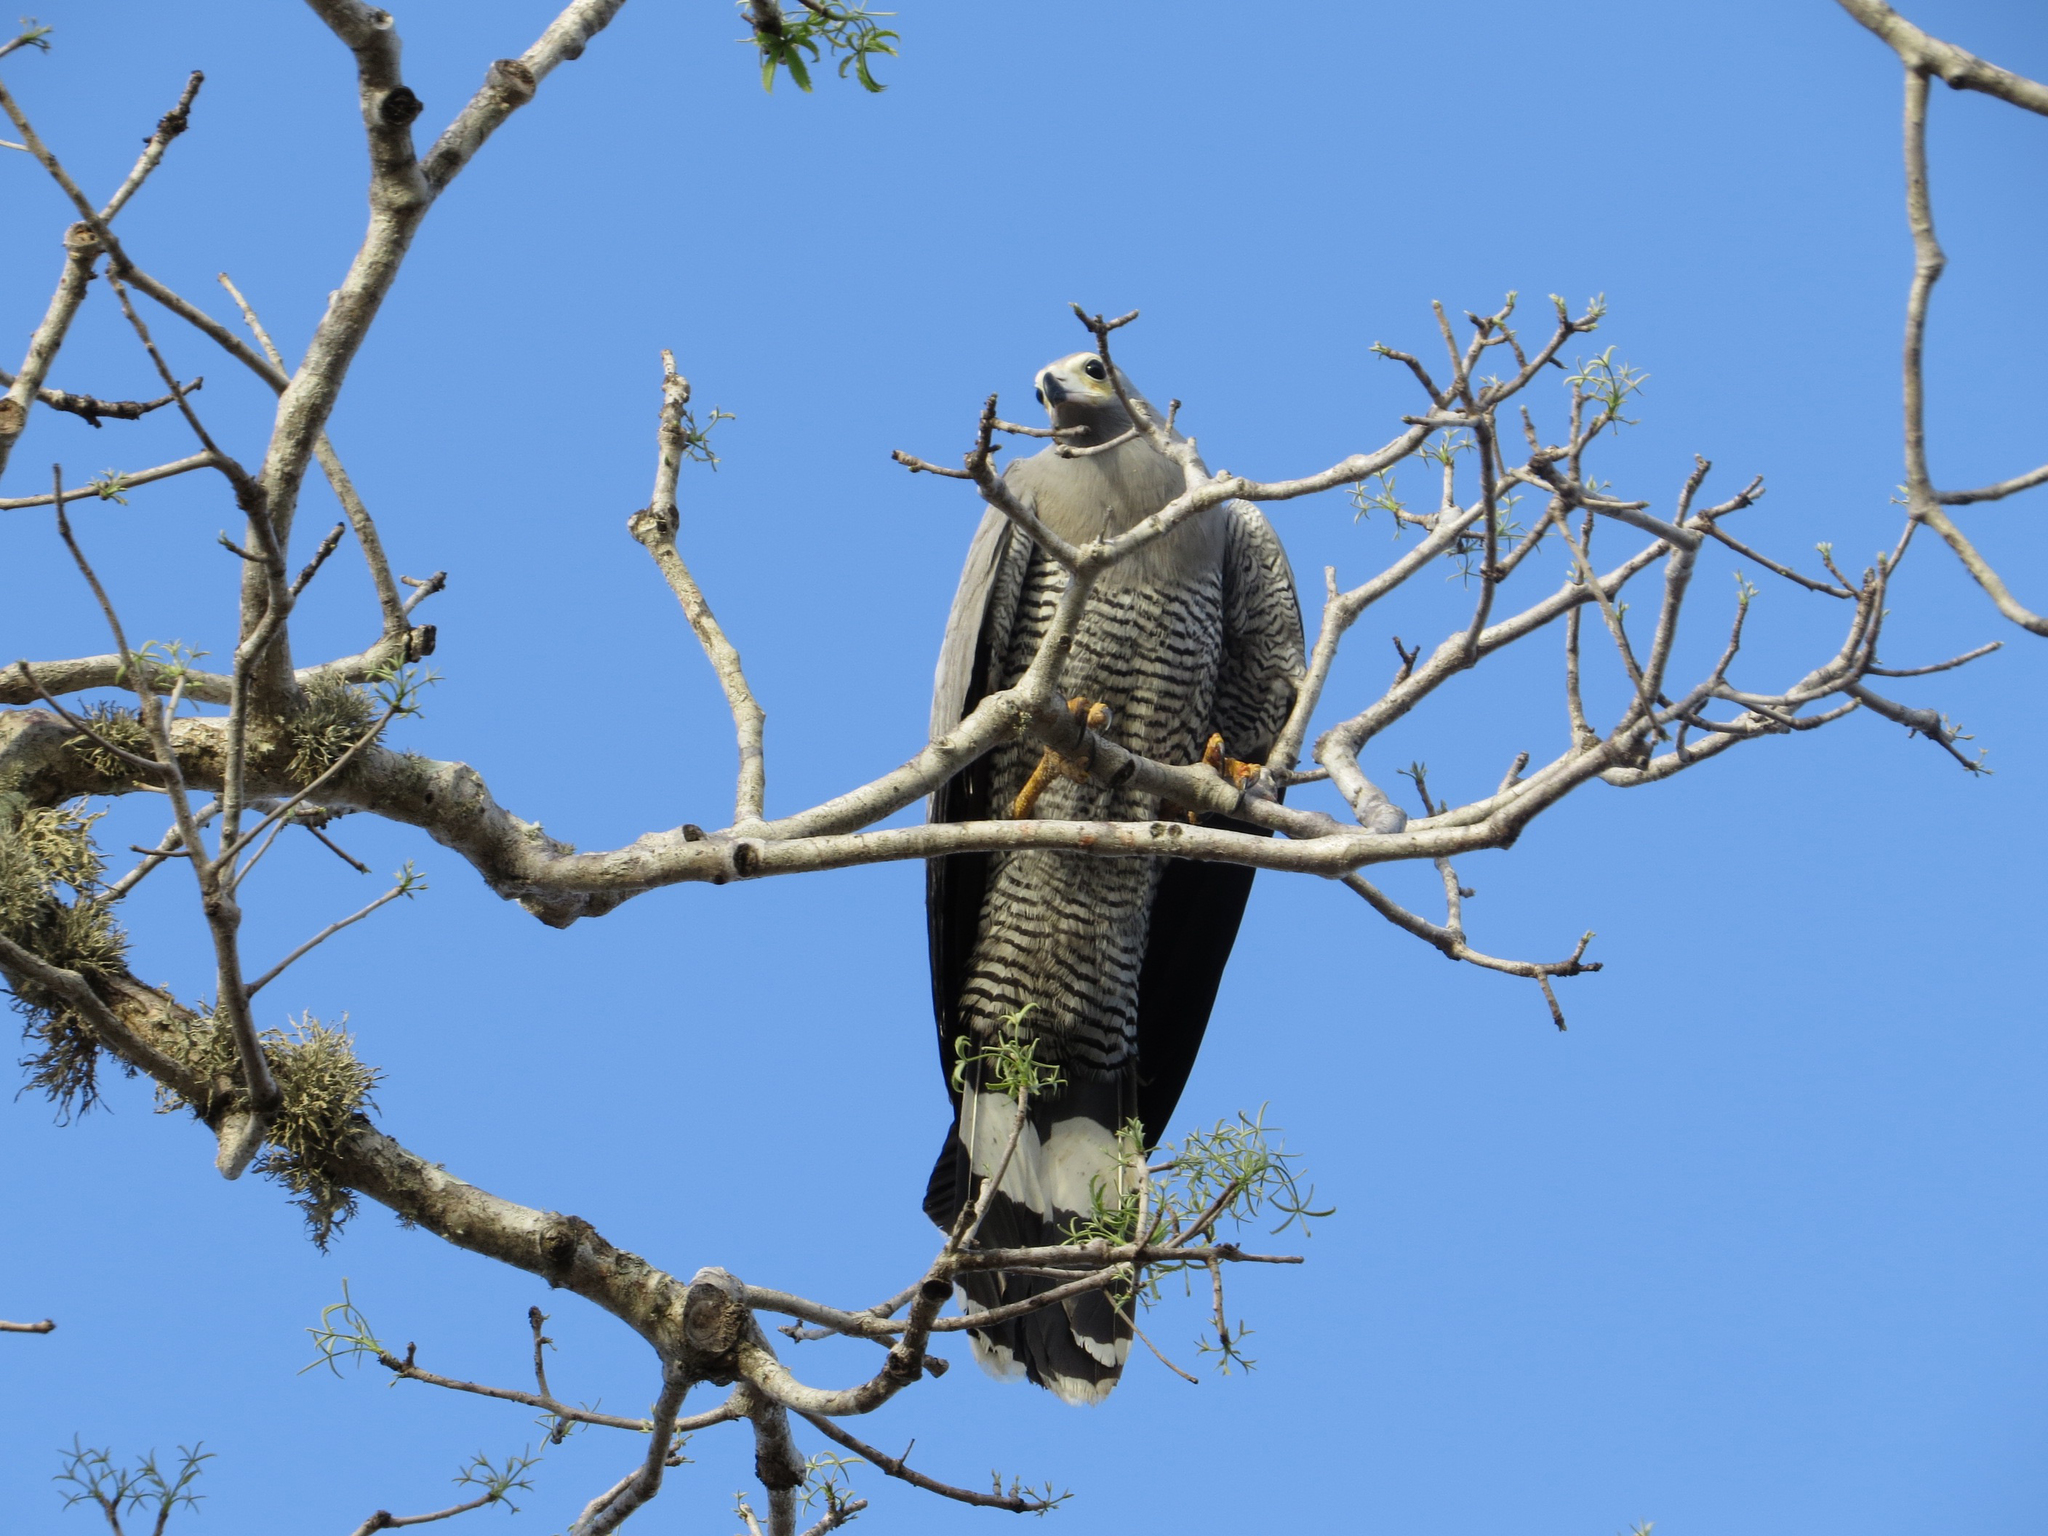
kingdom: Animalia
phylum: Chordata
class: Aves
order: Accipitriformes
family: Accipitridae
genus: Polyboroides
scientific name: Polyboroides radiatus
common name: Madagascar harrier-hawk
